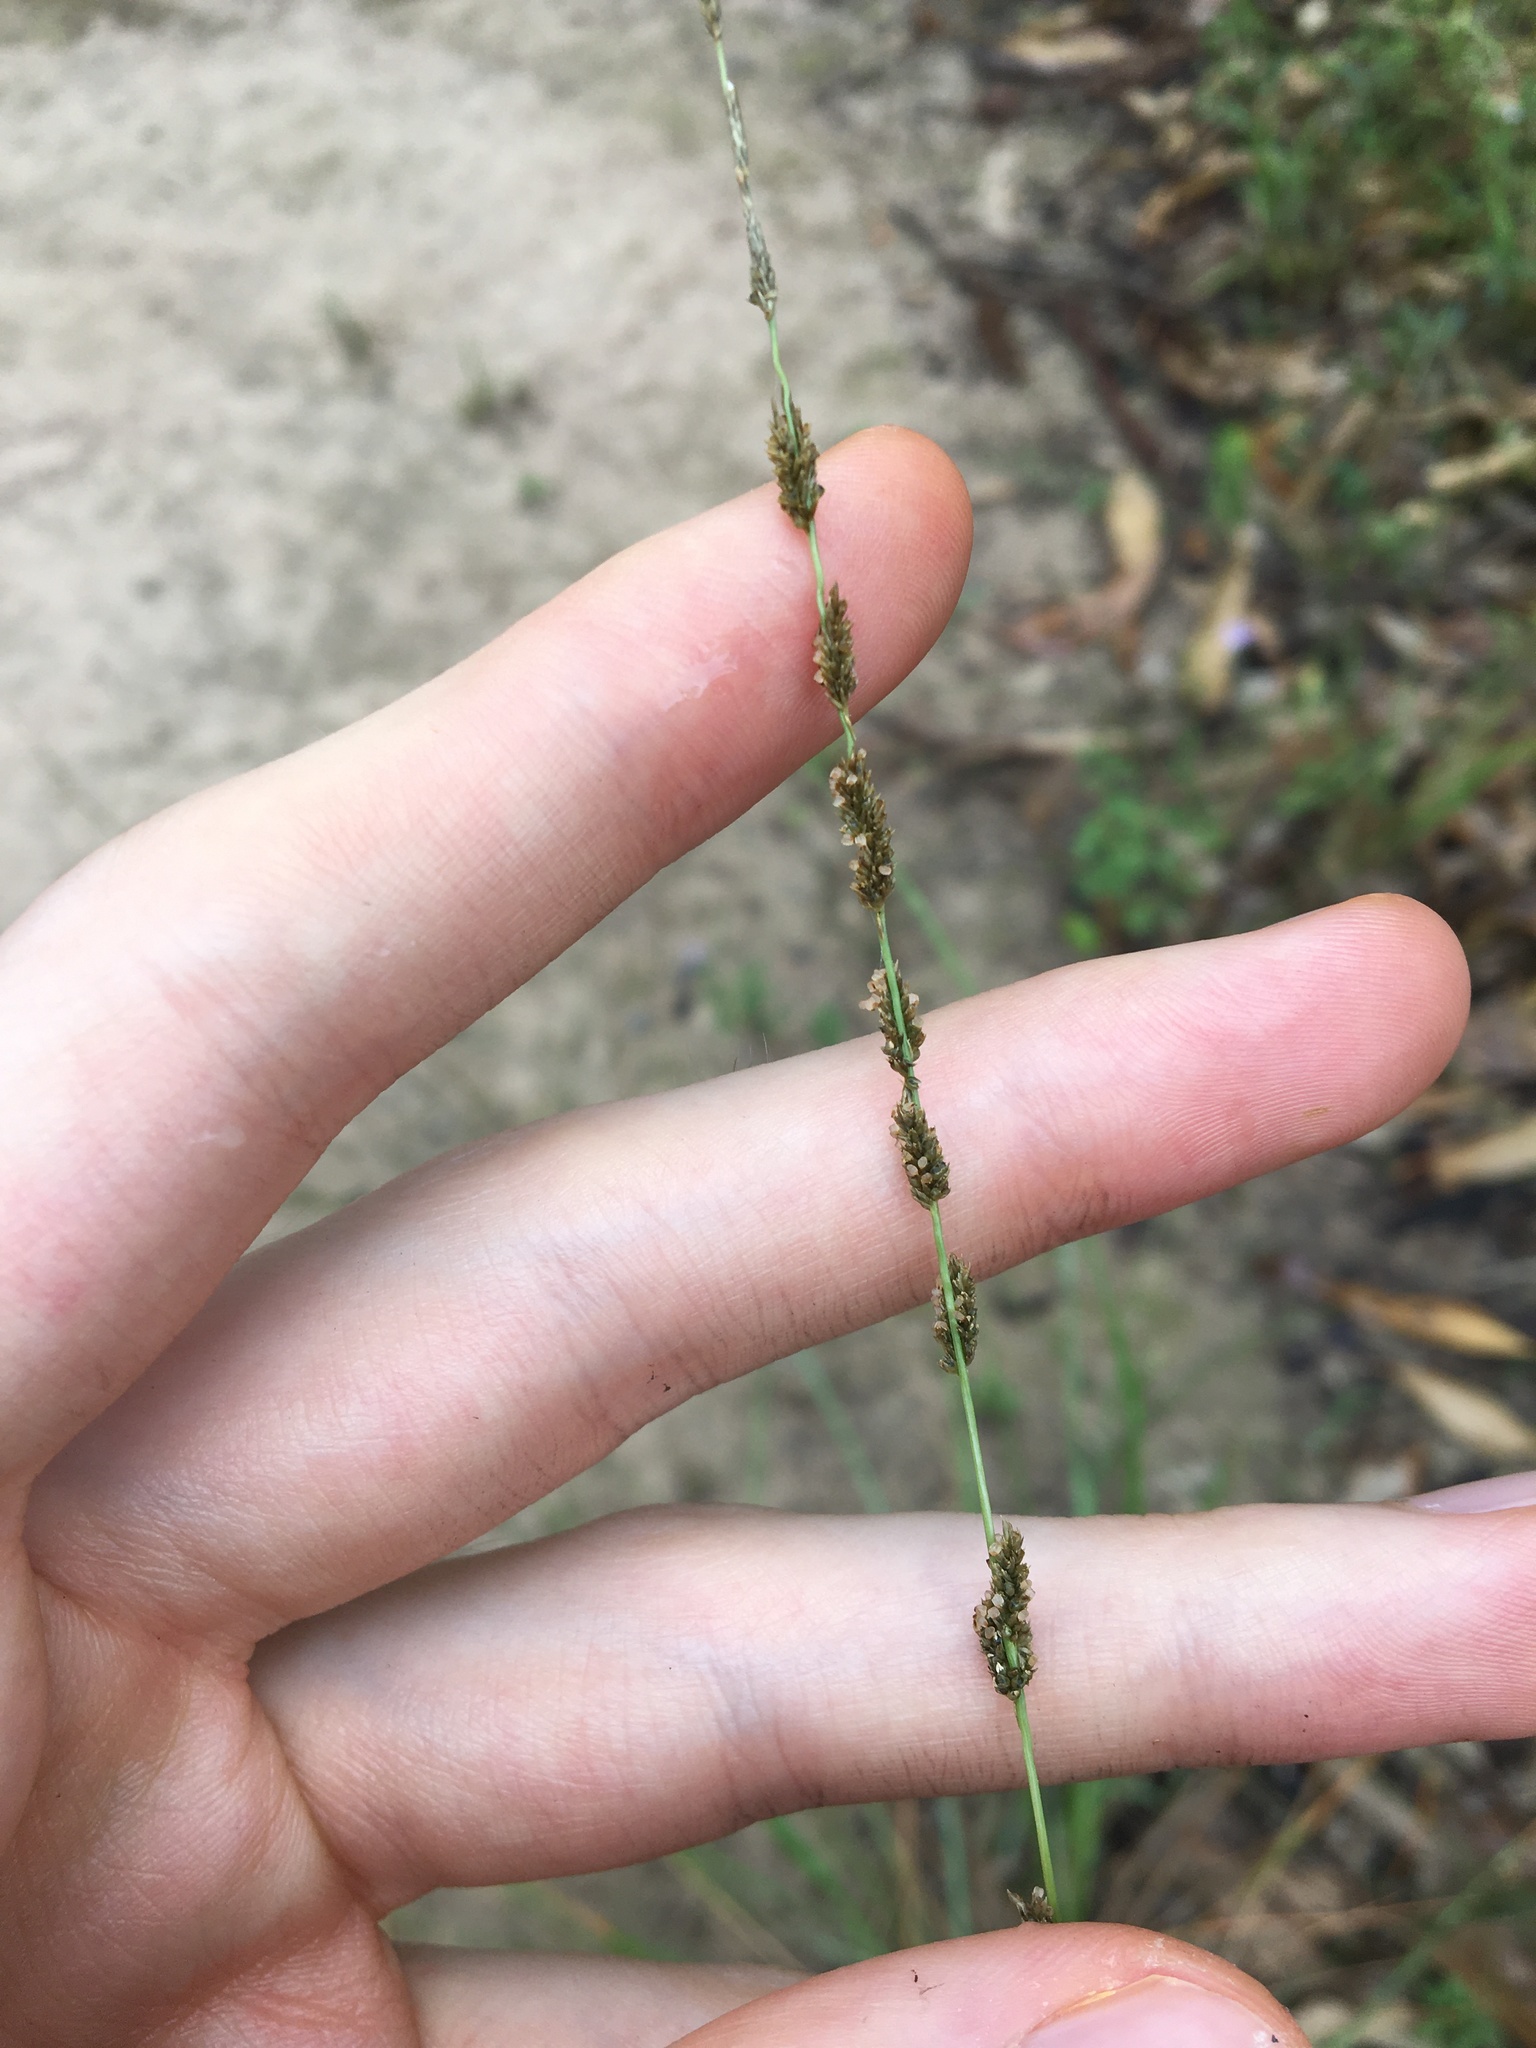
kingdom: Plantae
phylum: Tracheophyta
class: Liliopsida
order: Poales
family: Poaceae
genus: Sporobolus
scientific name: Sporobolus creber
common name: Slender dropseed
